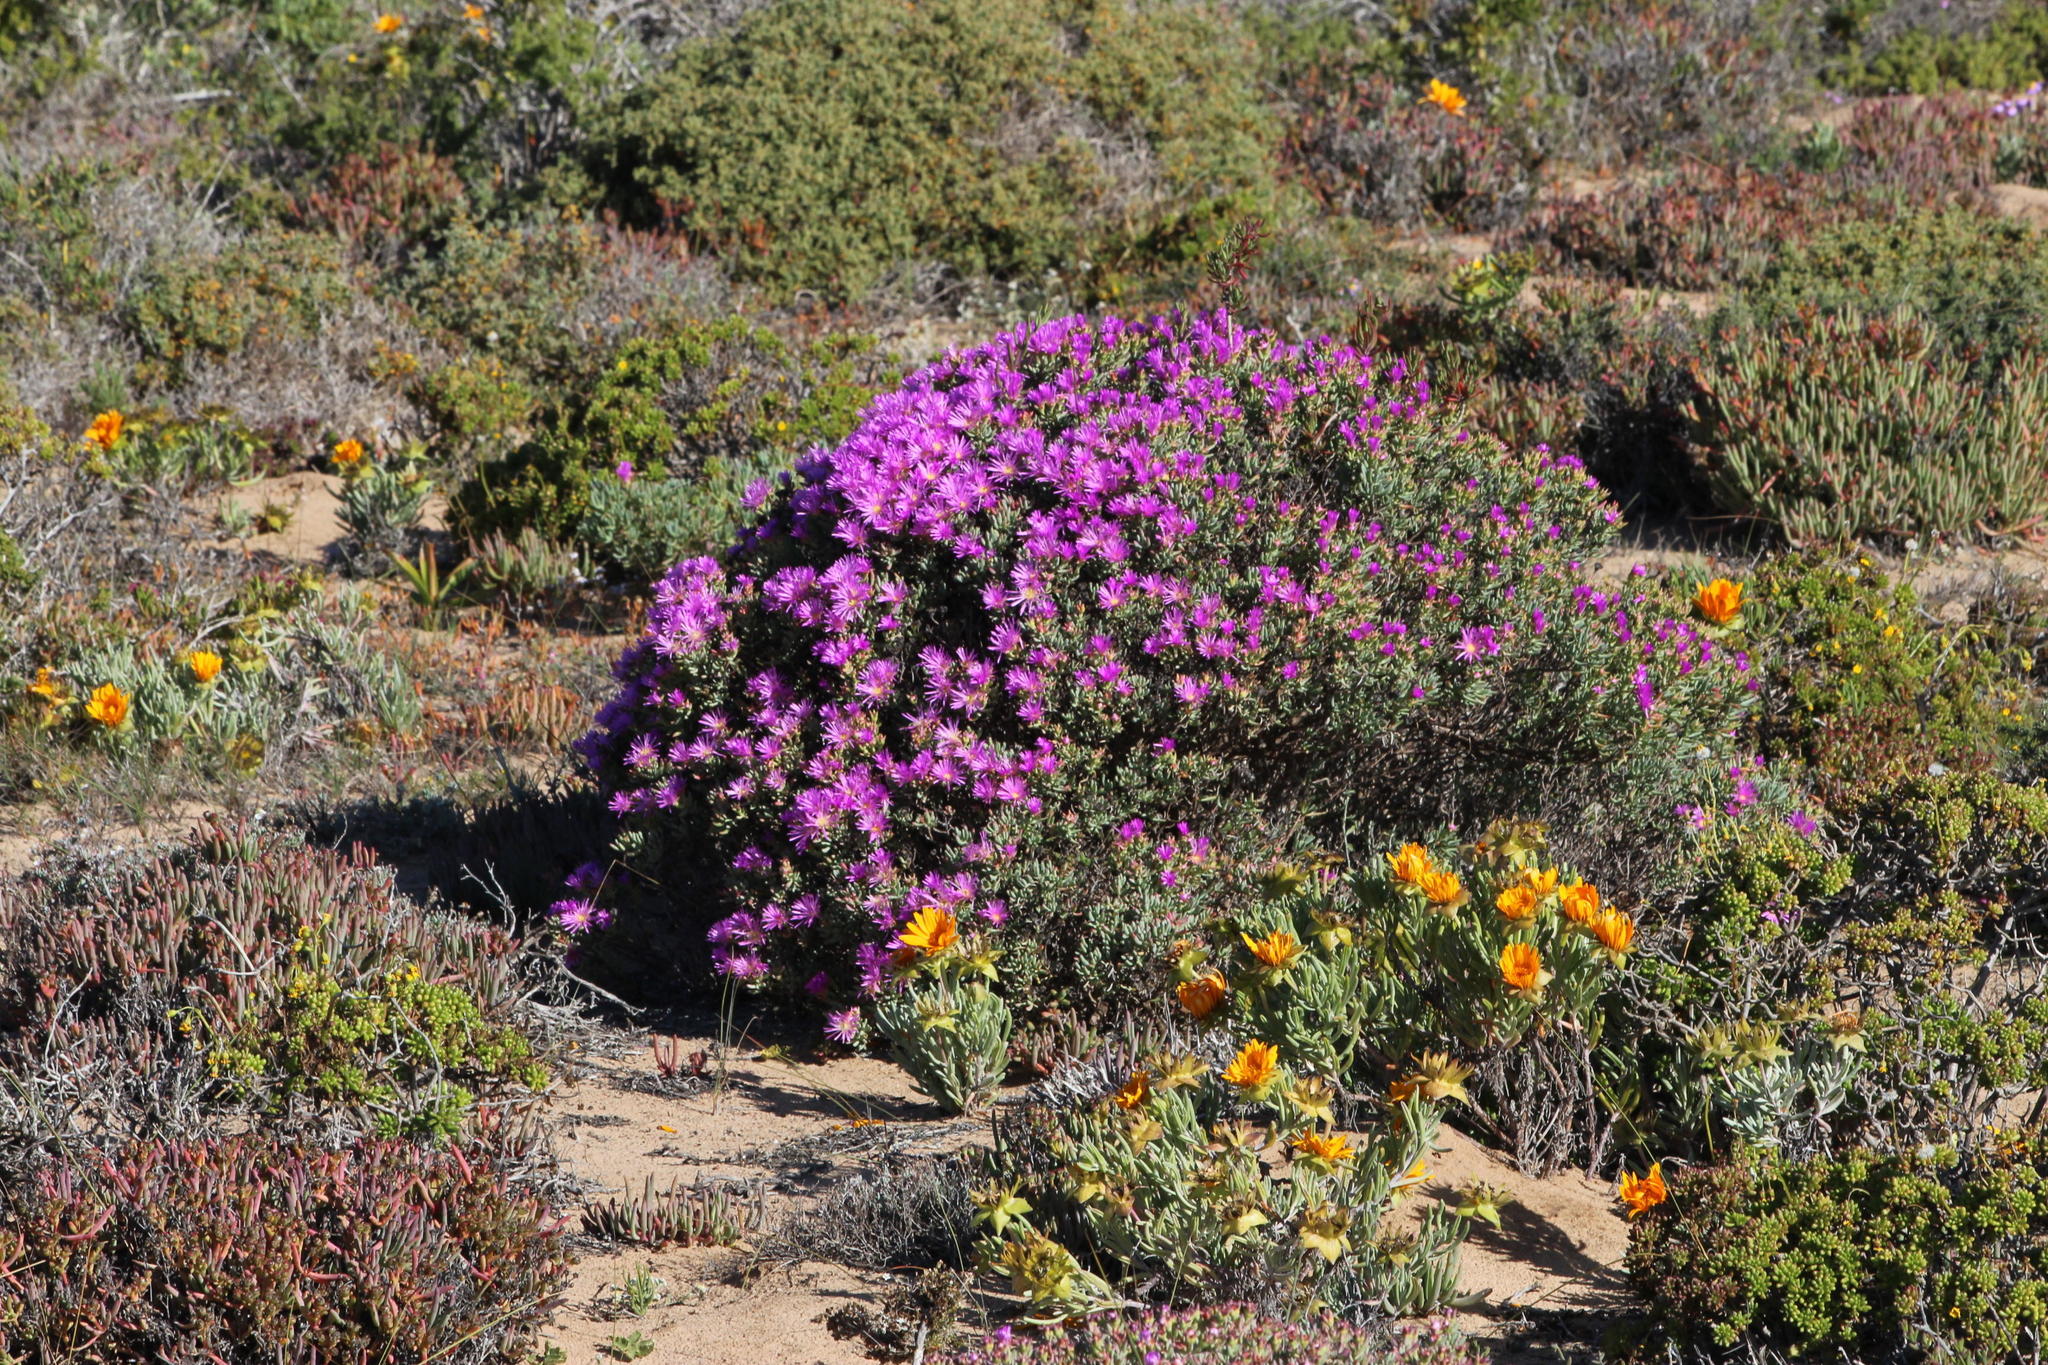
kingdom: Plantae
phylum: Tracheophyta
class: Magnoliopsida
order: Caryophyllales
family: Aizoaceae
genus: Lampranthus
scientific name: Lampranthus suavissimus
